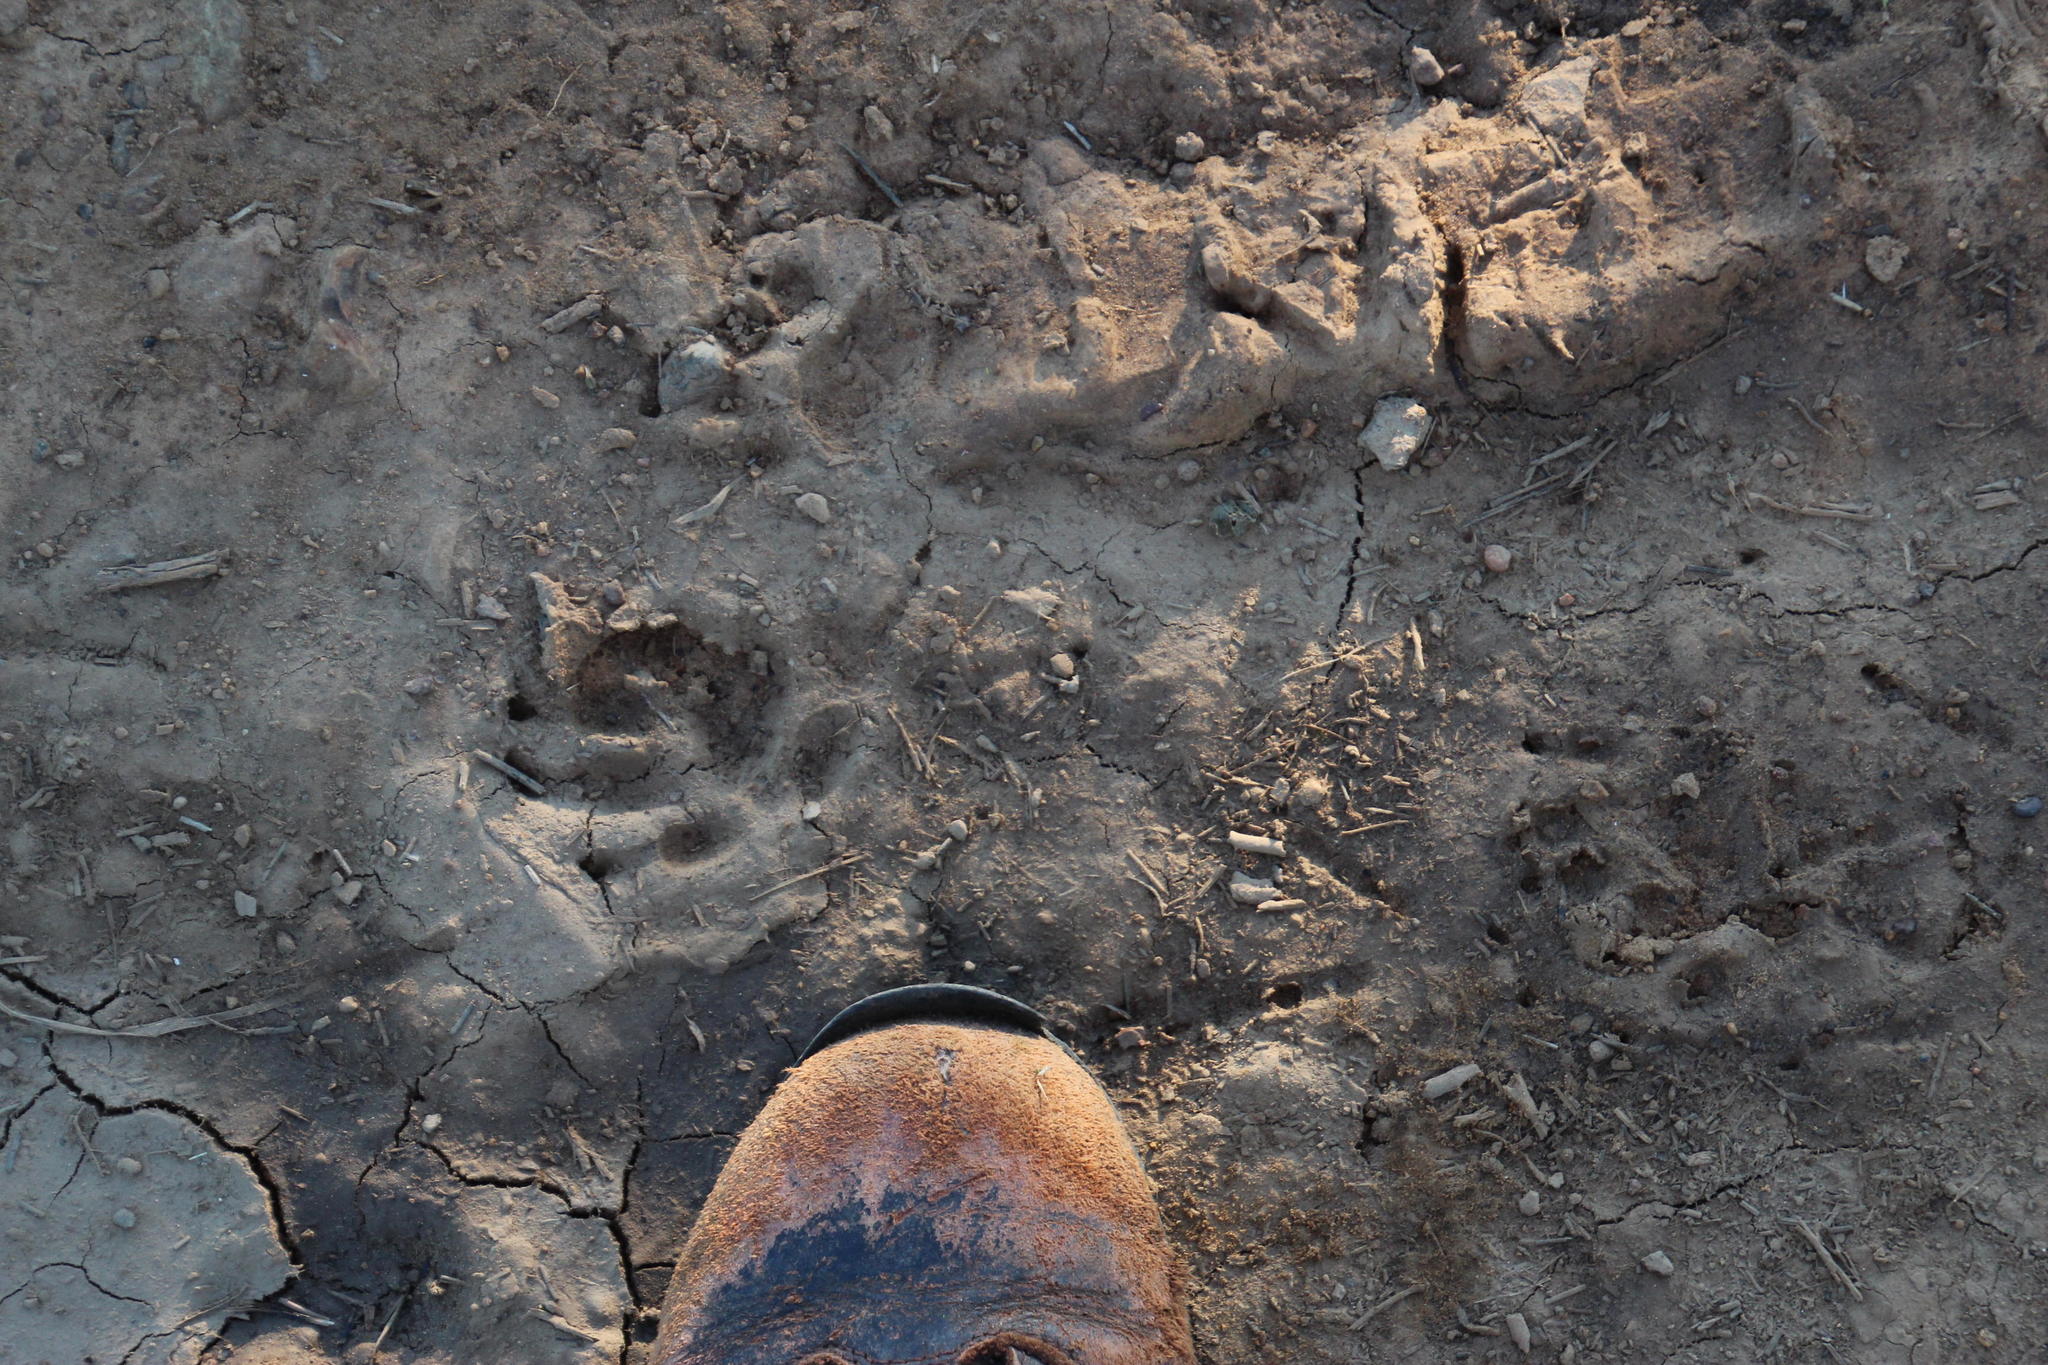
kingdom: Animalia
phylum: Chordata
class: Mammalia
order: Carnivora
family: Canidae
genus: Canis
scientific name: Canis lupus
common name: Gray wolf
